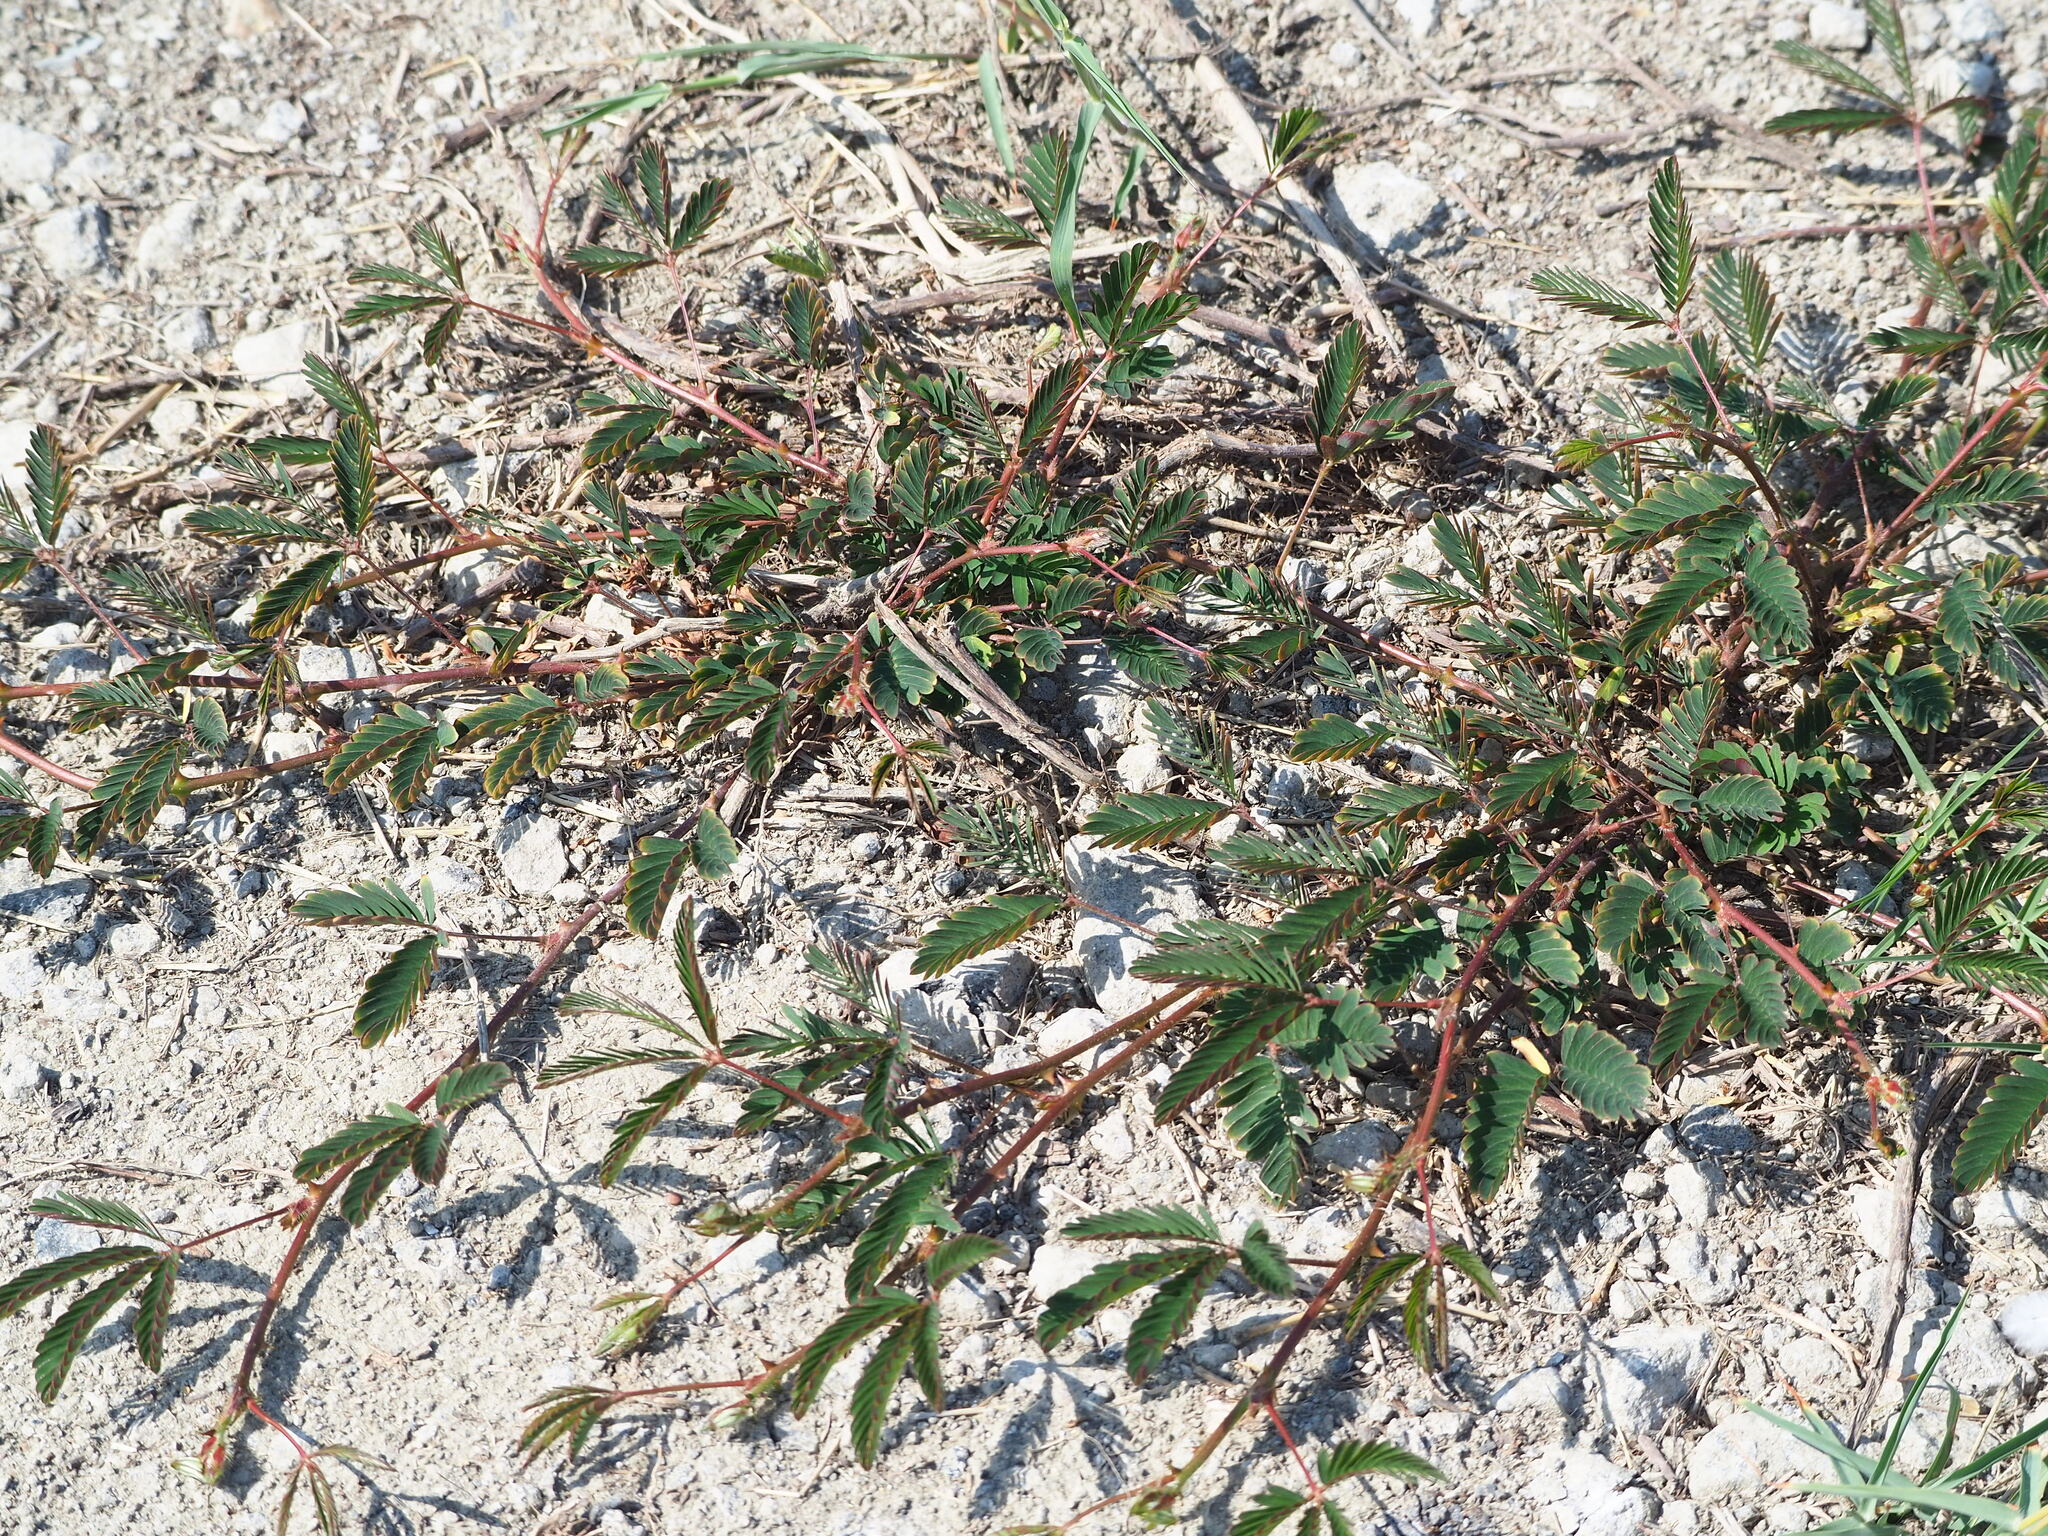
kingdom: Plantae
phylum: Tracheophyta
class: Magnoliopsida
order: Fabales
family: Fabaceae
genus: Mimosa
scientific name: Mimosa pudica
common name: Sensitive plant
